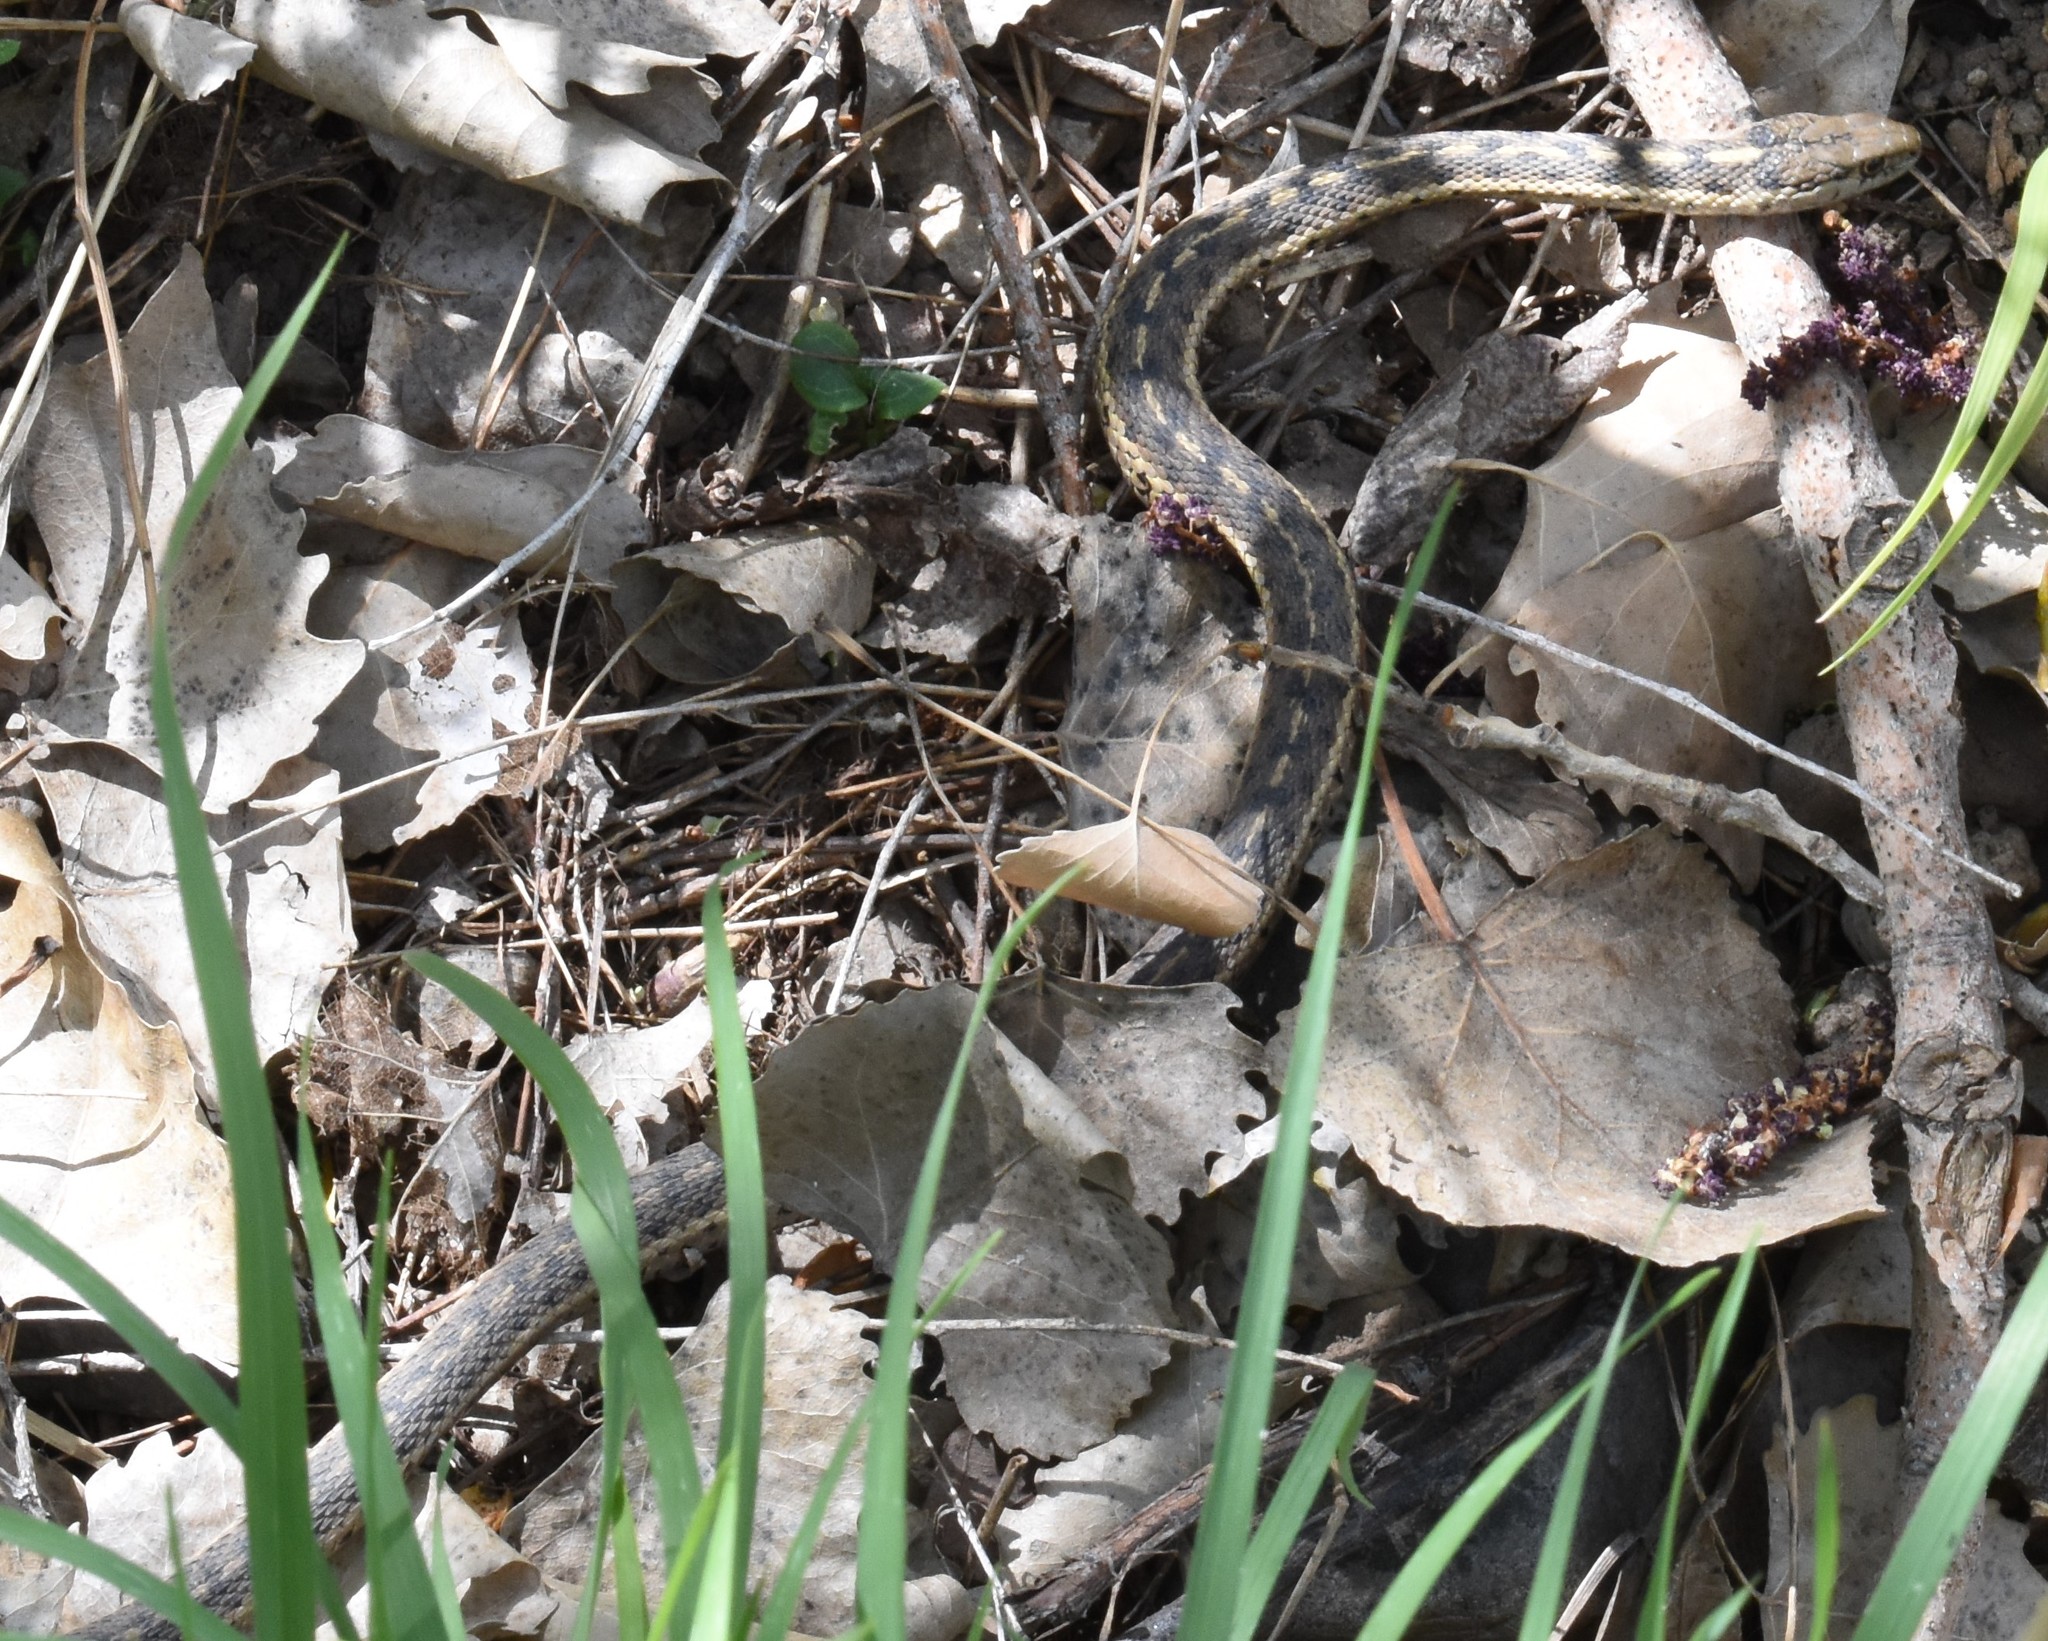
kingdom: Animalia
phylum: Chordata
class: Squamata
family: Colubridae
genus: Thamnophis
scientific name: Thamnophis elegans
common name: Western terrestrial garter snake
